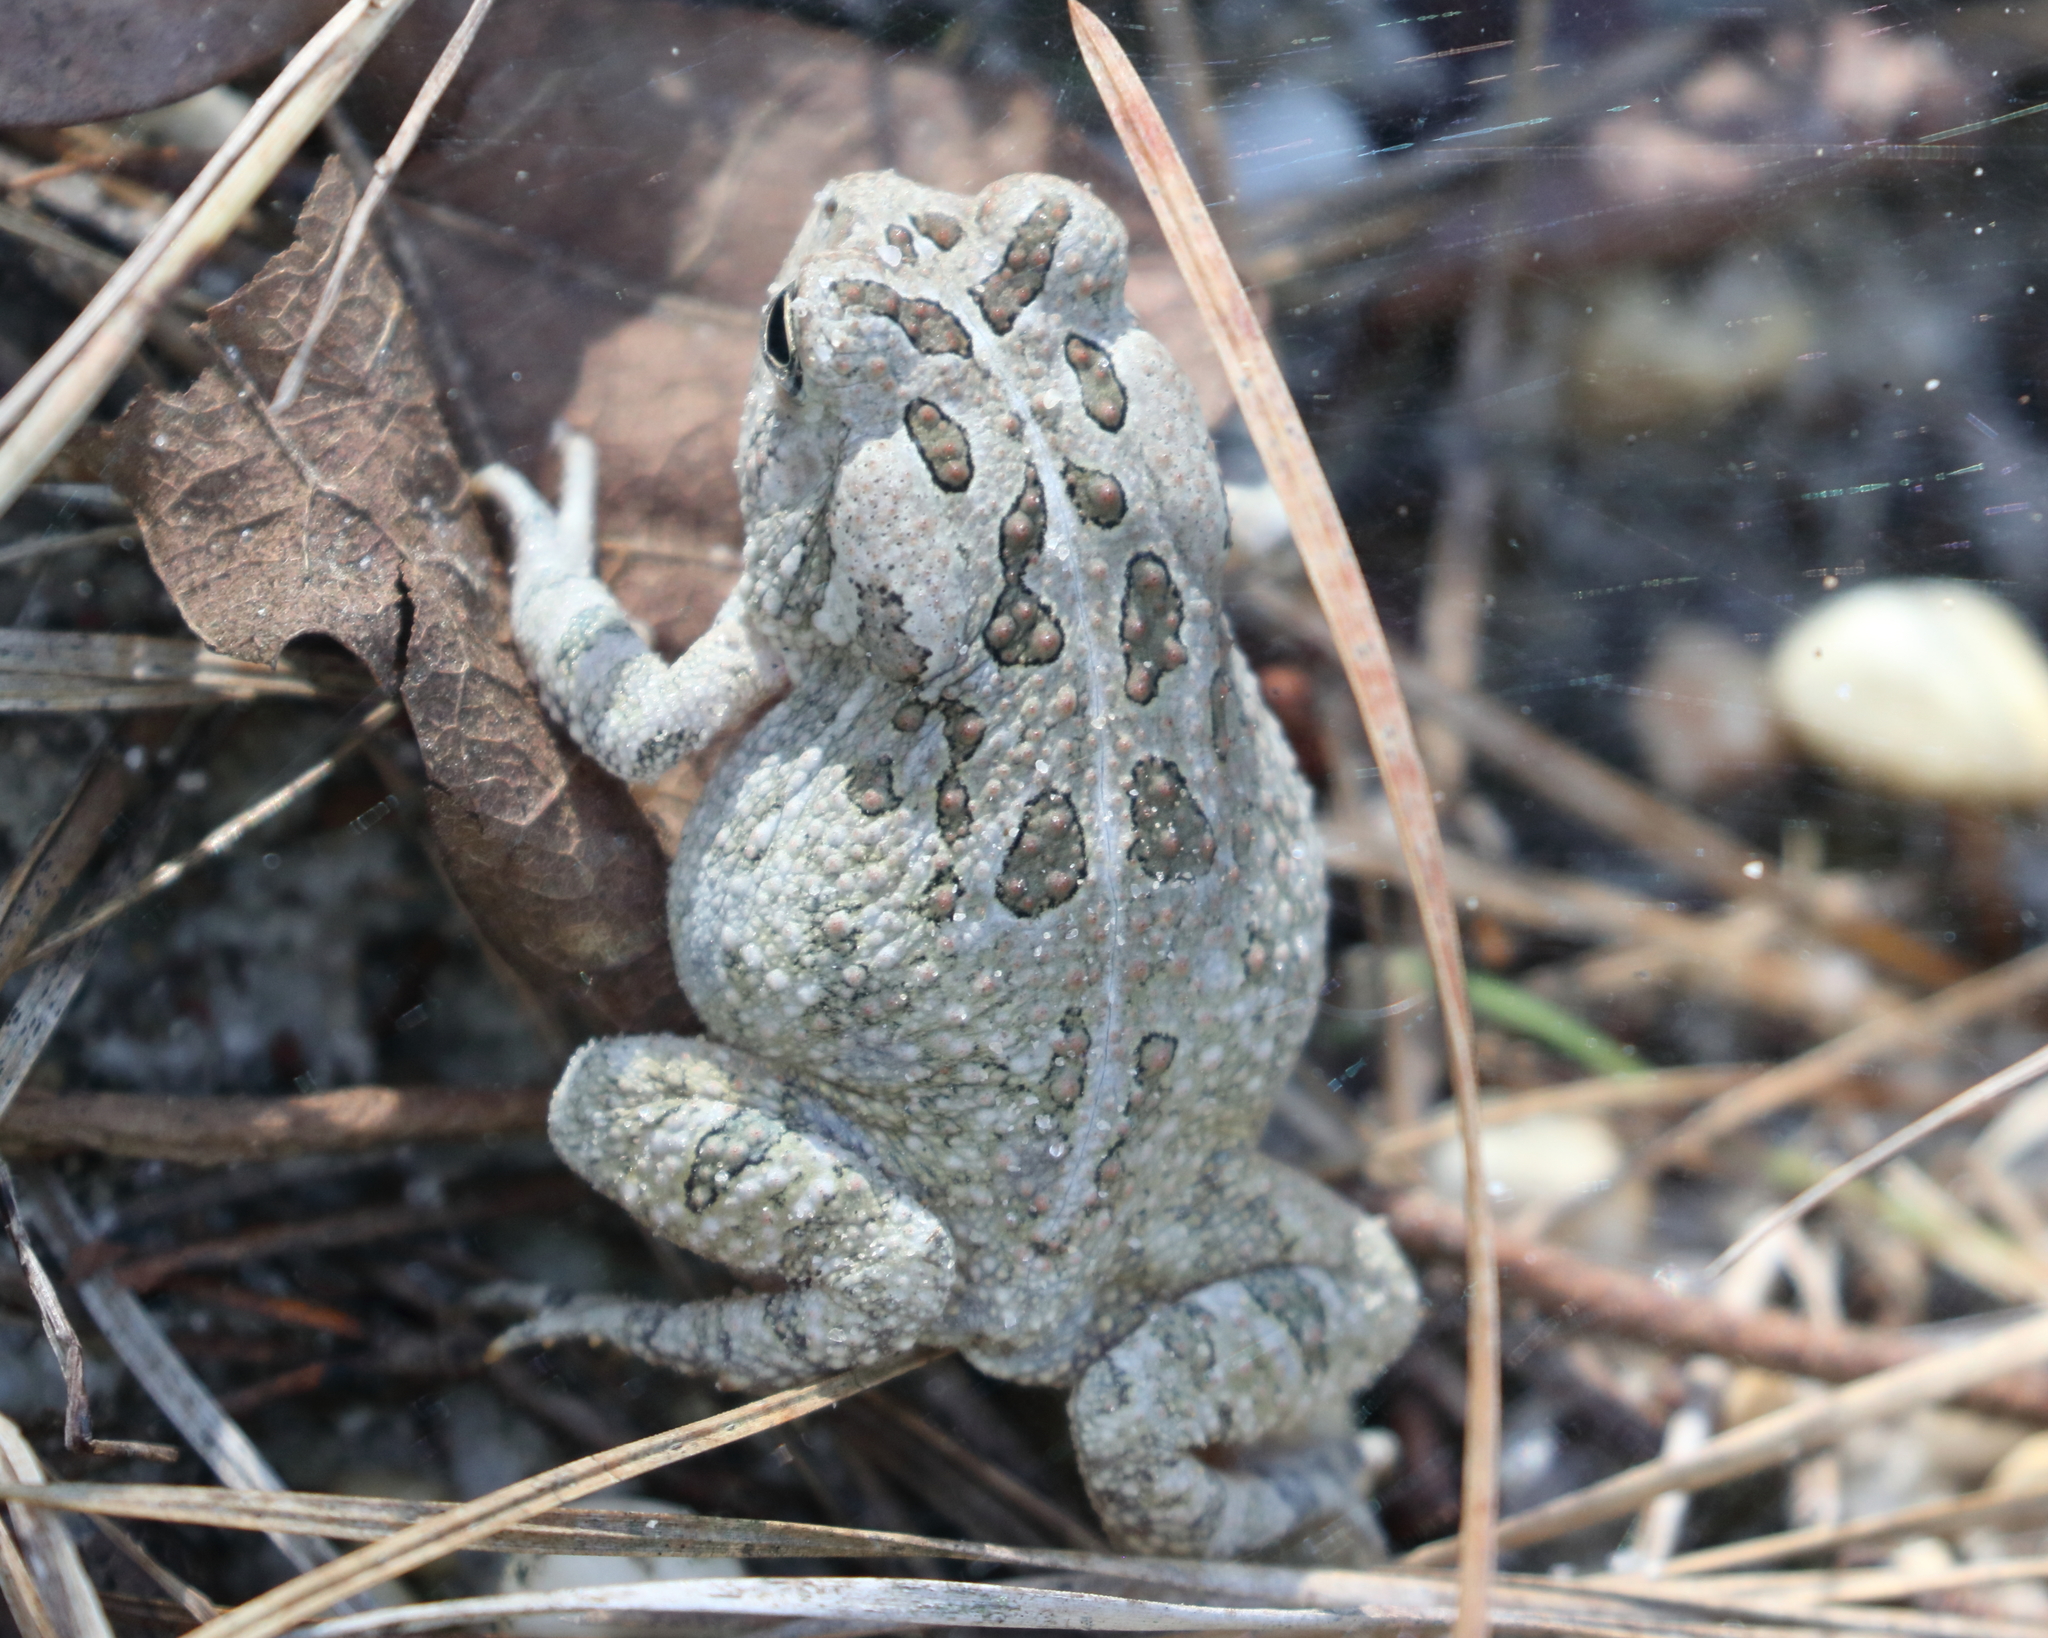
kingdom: Animalia
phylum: Chordata
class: Amphibia
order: Anura
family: Bufonidae
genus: Anaxyrus
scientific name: Anaxyrus fowleri
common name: Fowler's toad
